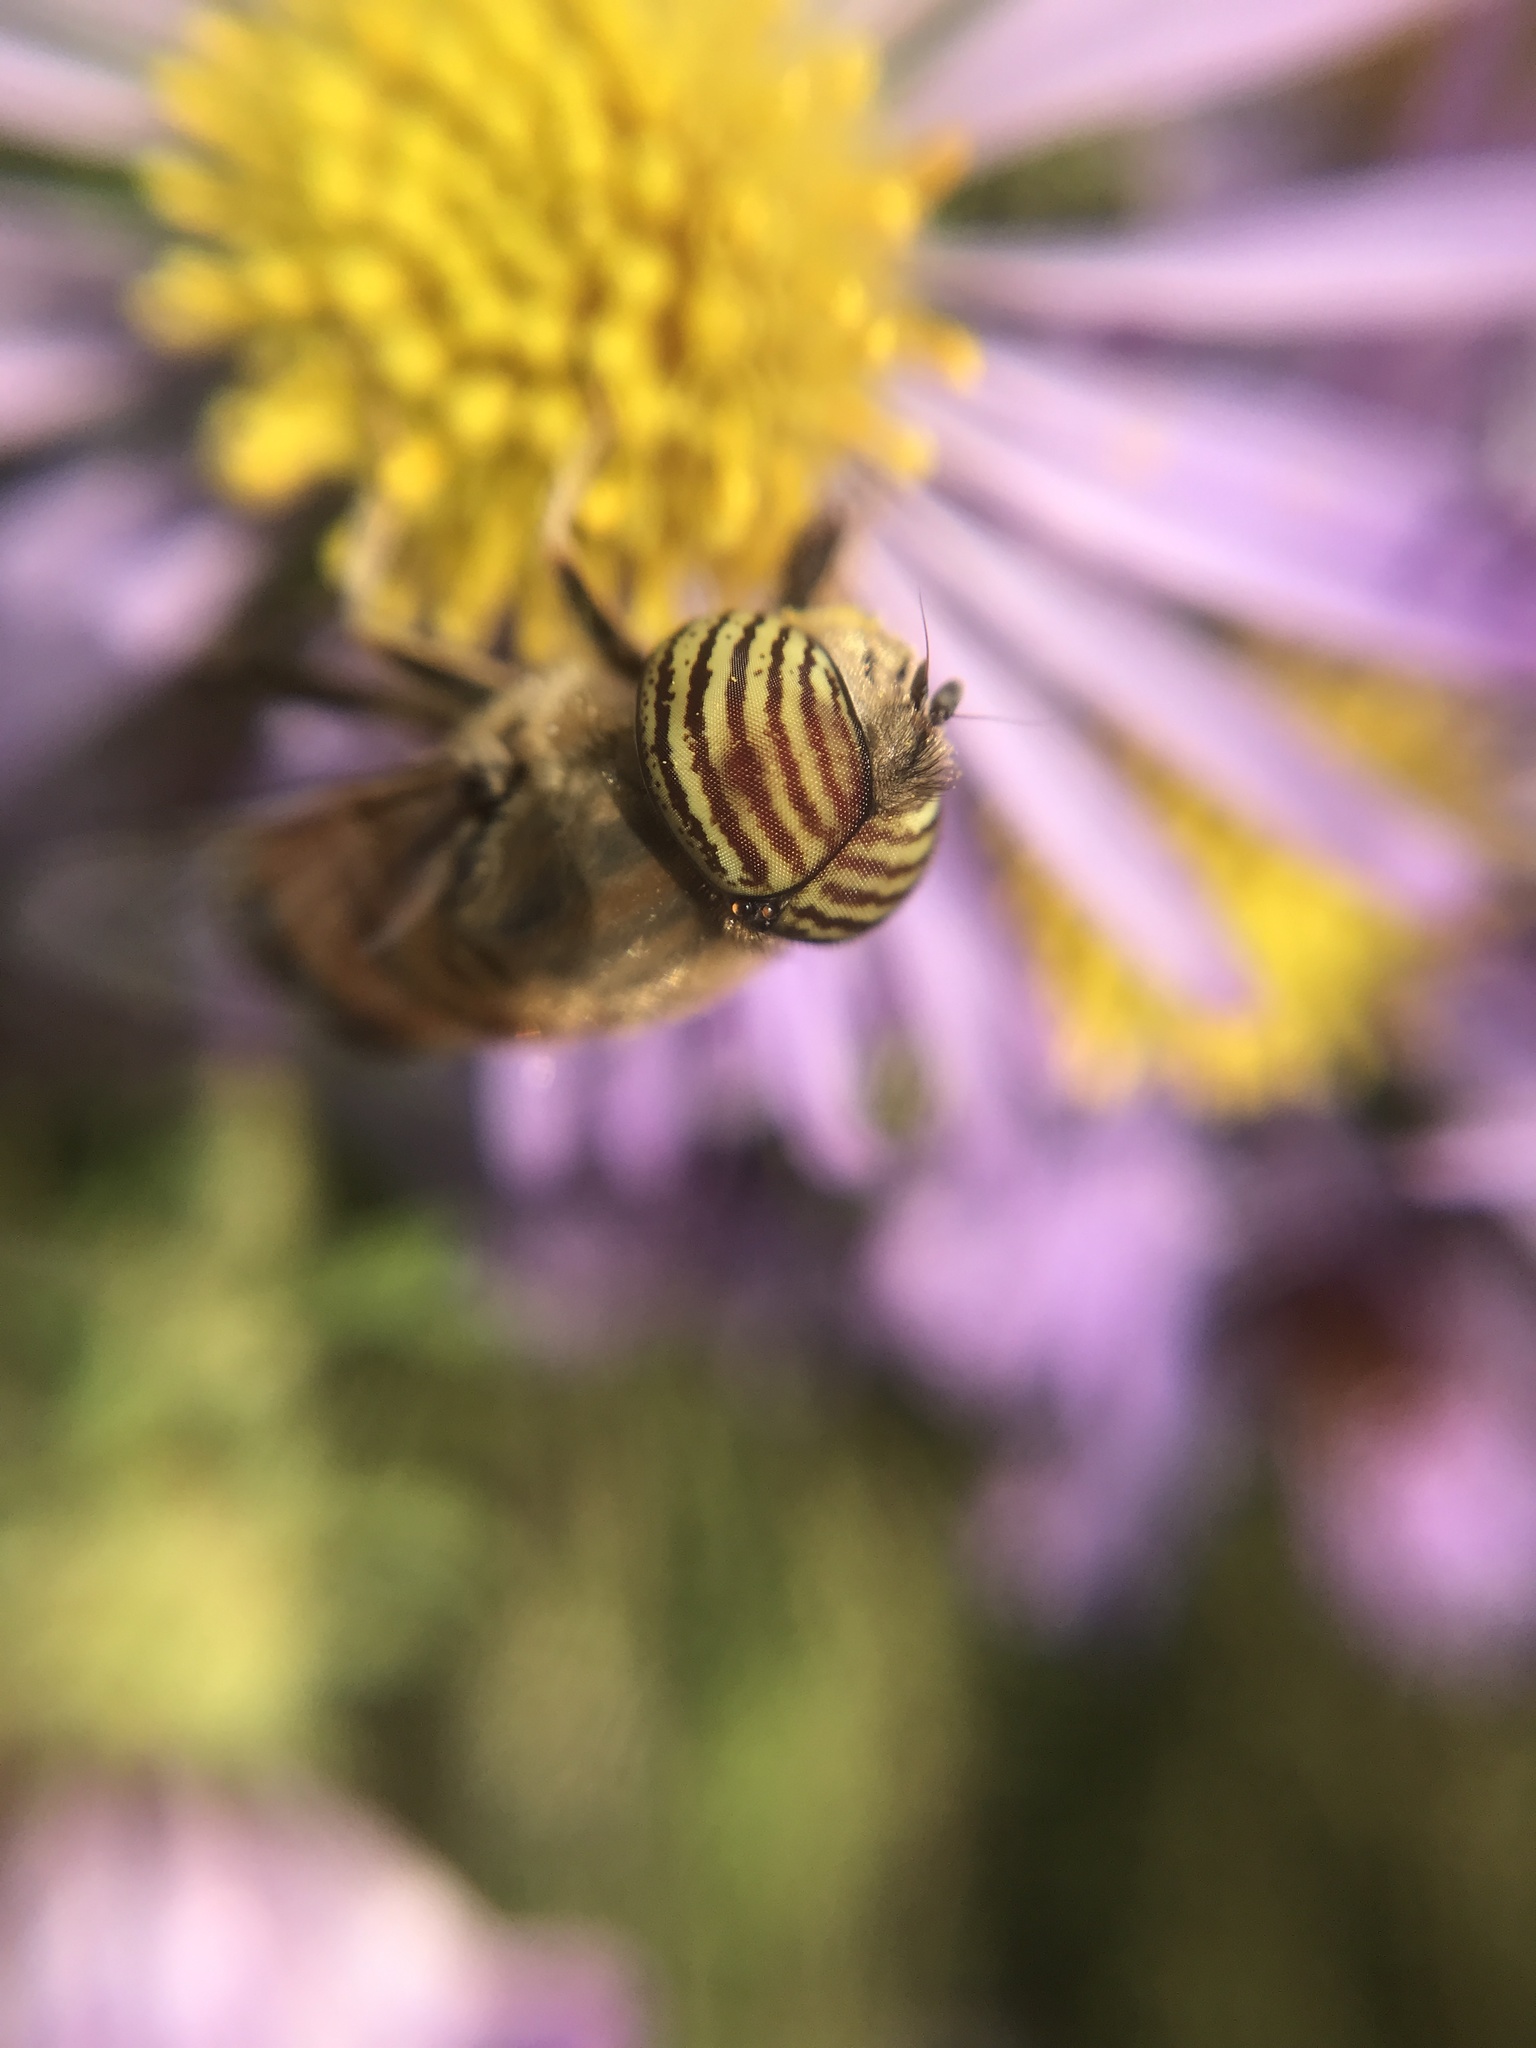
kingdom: Animalia
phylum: Arthropoda
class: Insecta
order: Diptera
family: Syrphidae
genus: Eristalinus
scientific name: Eristalinus taeniops
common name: Syrphid fly
